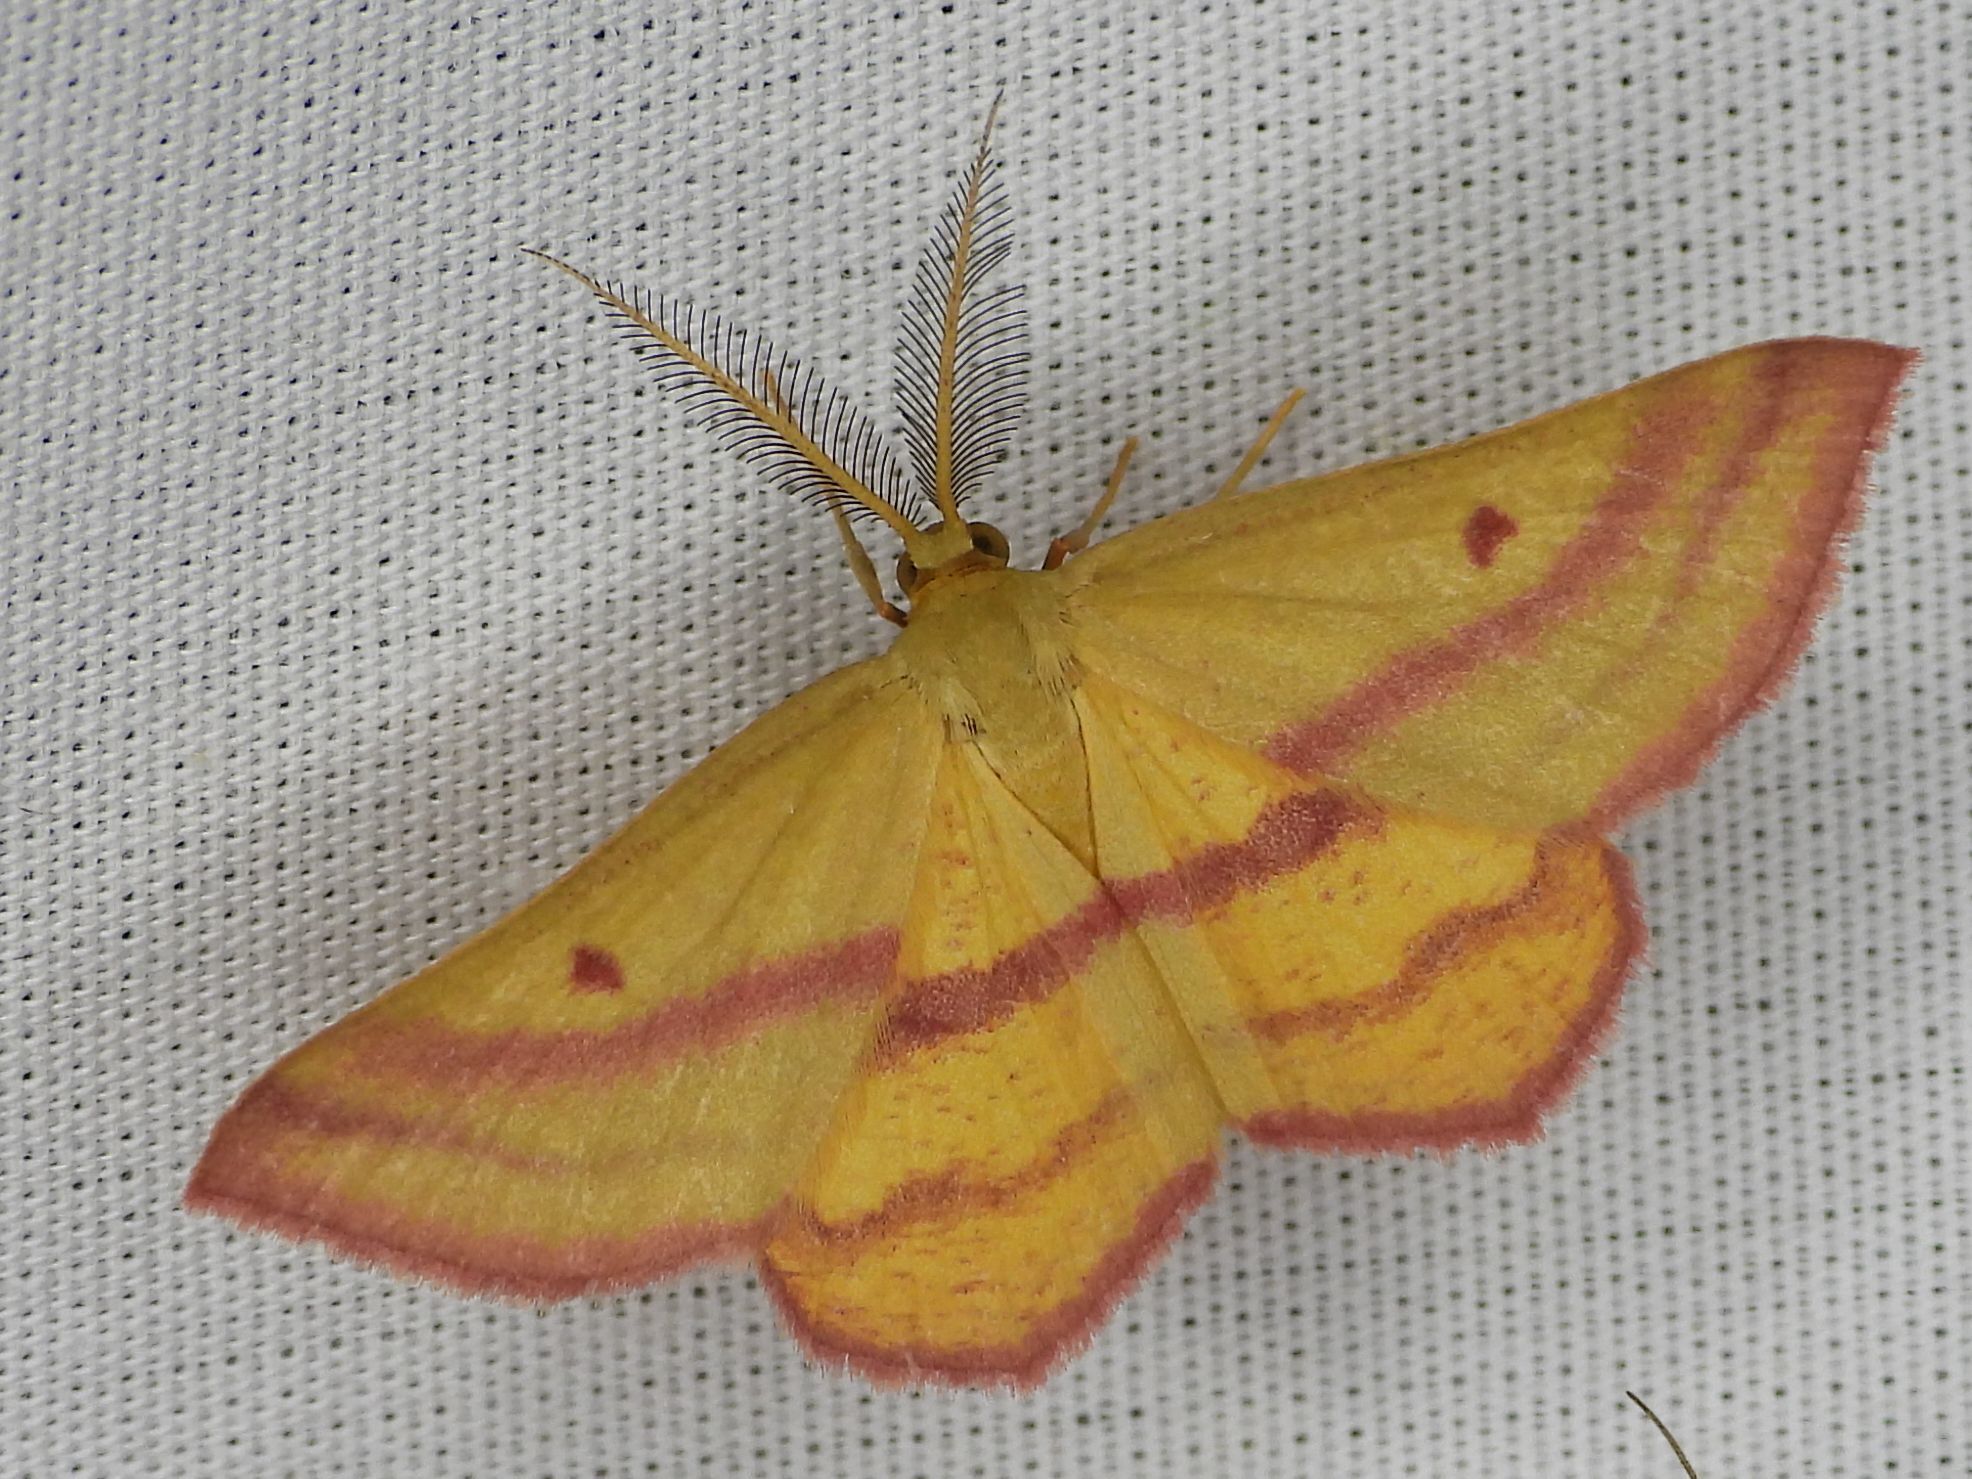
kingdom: Animalia
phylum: Arthropoda
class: Insecta
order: Lepidoptera
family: Geometridae
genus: Haematopis
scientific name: Haematopis grataria
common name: Chickweed geometer
